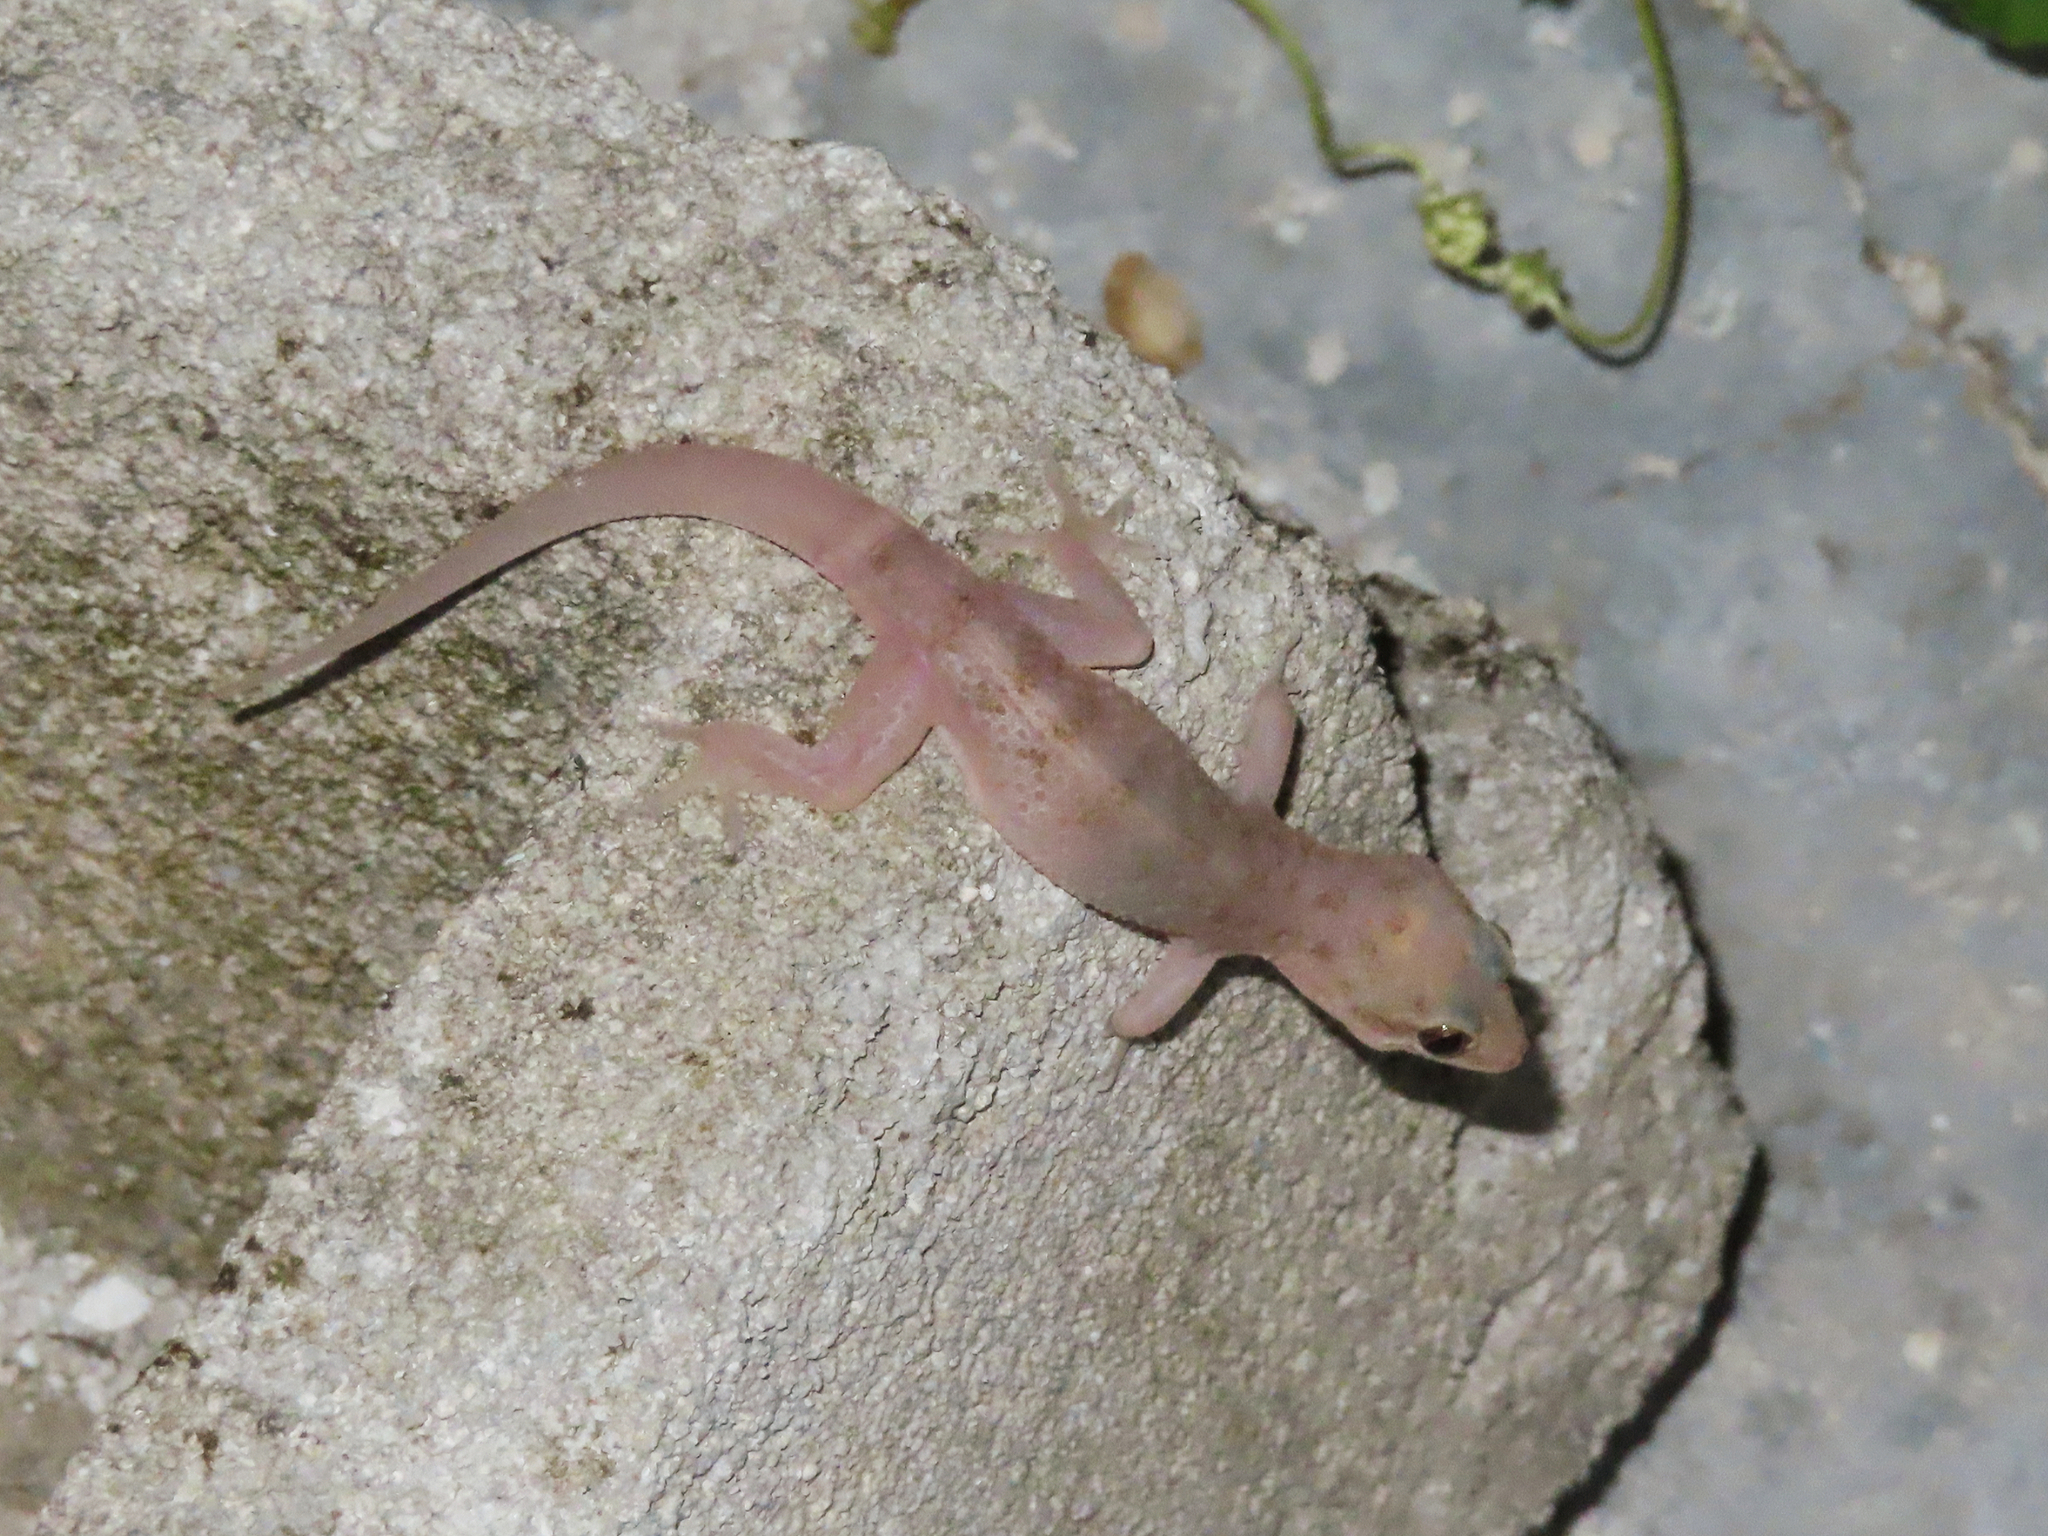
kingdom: Animalia
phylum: Chordata
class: Squamata
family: Gekkonidae
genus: Hemidactylus
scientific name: Hemidactylus parvimaculatus
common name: Spotted house gecko
